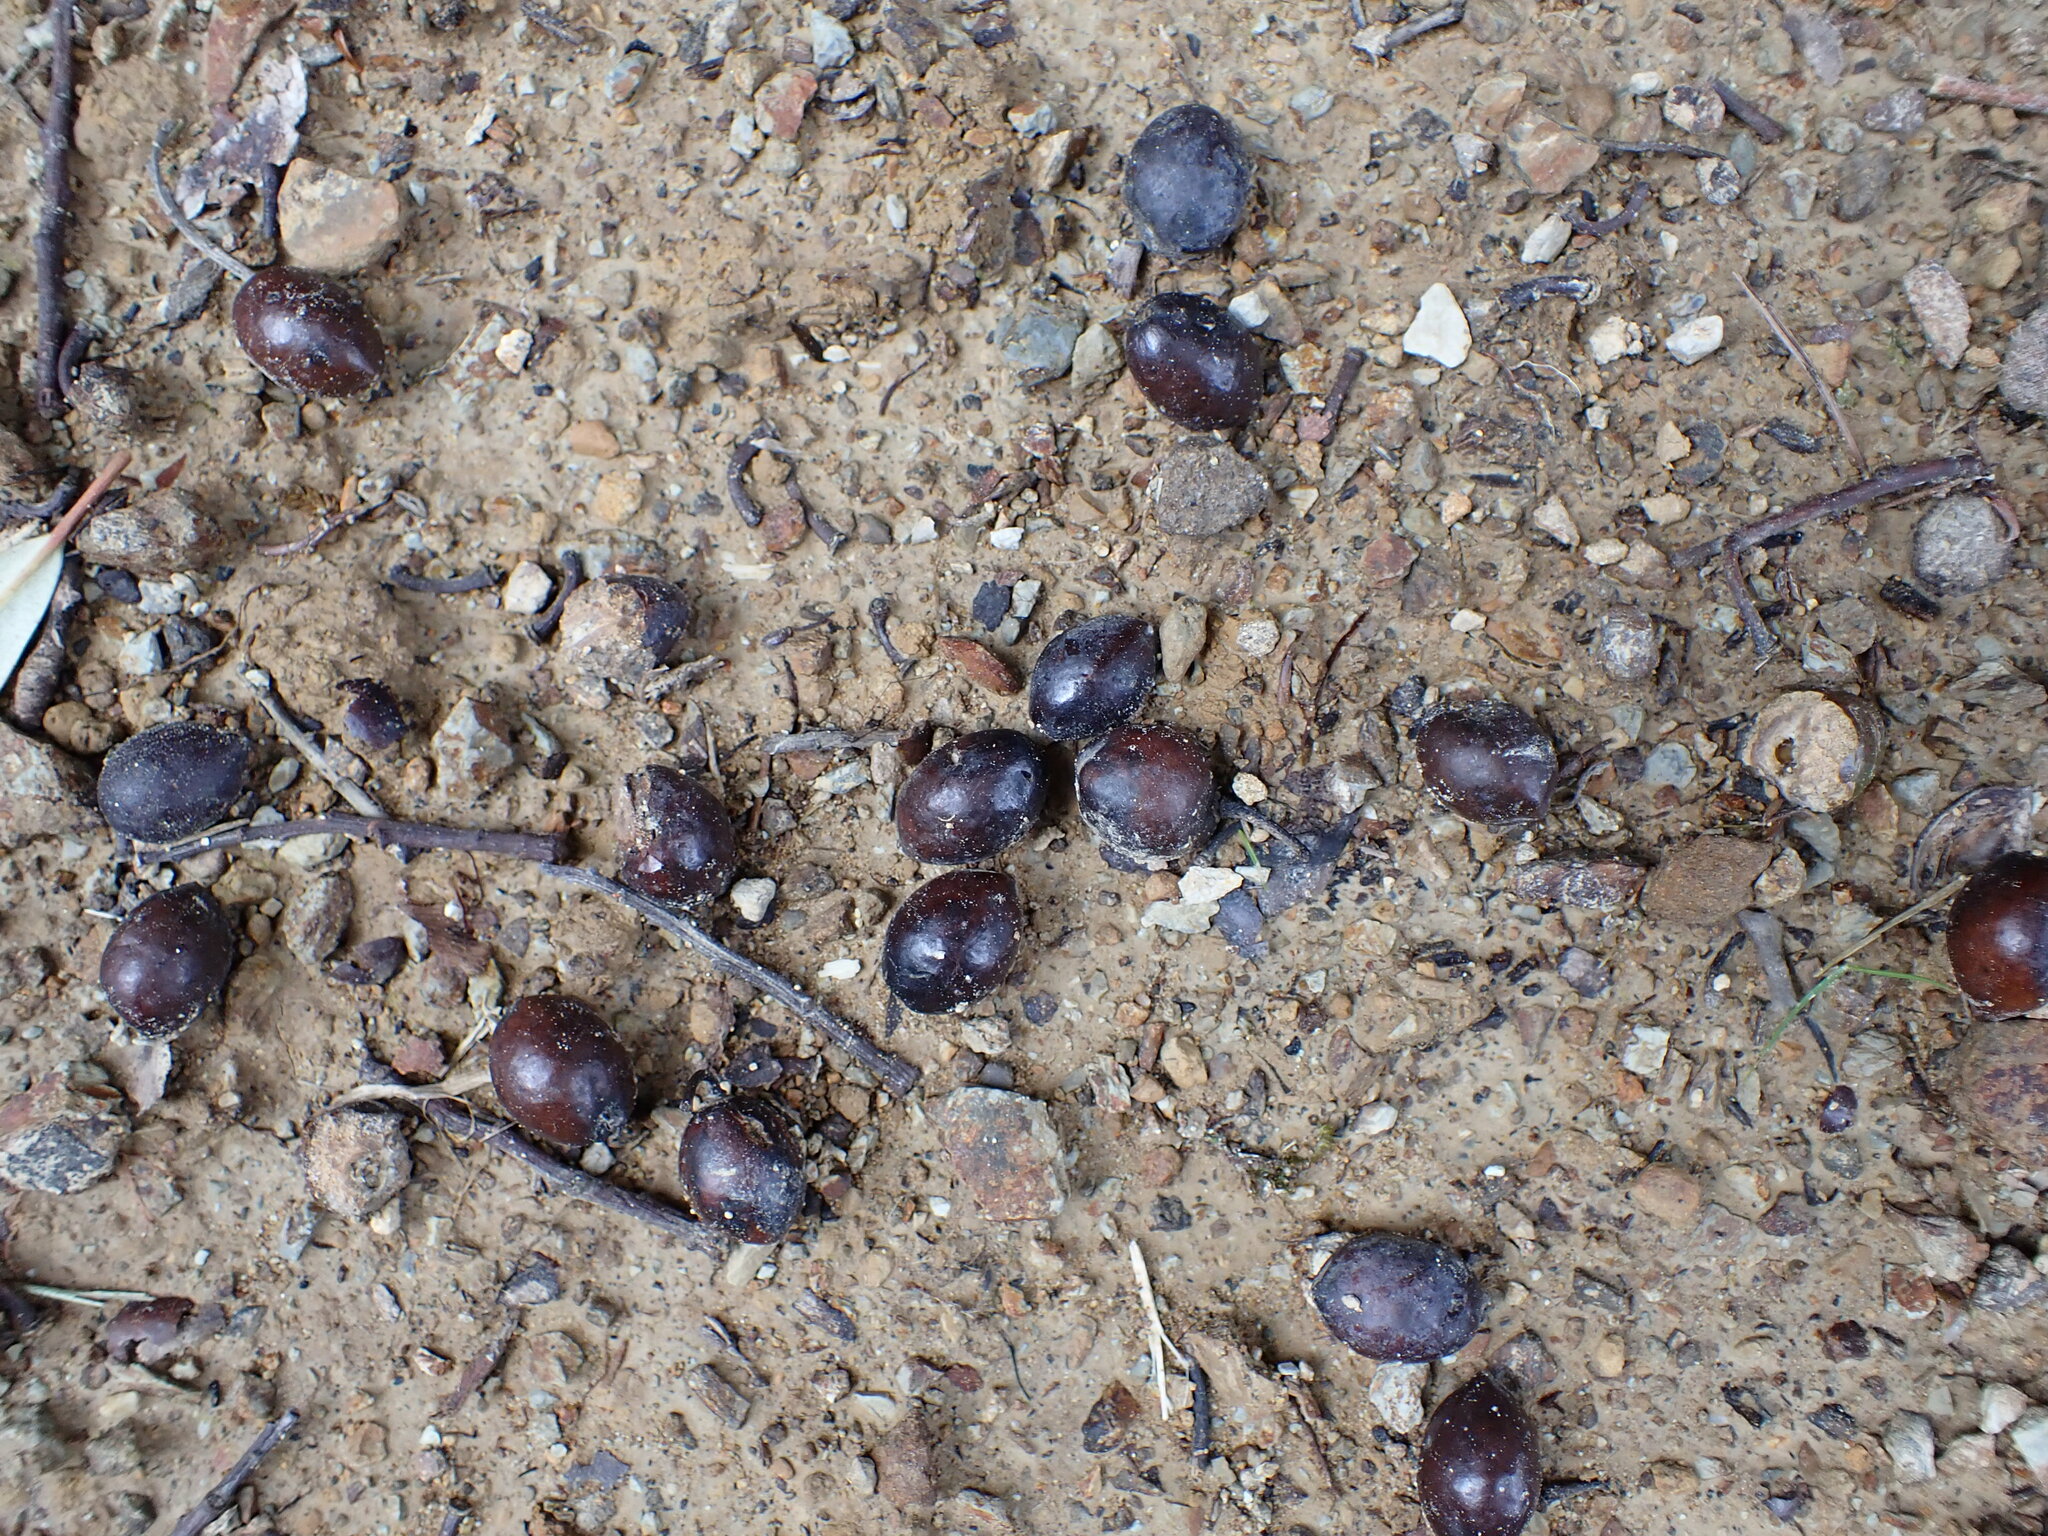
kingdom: Plantae
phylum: Tracheophyta
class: Magnoliopsida
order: Oxalidales
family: Elaeocarpaceae
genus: Elaeocarpus
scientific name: Elaeocarpus dentatus
